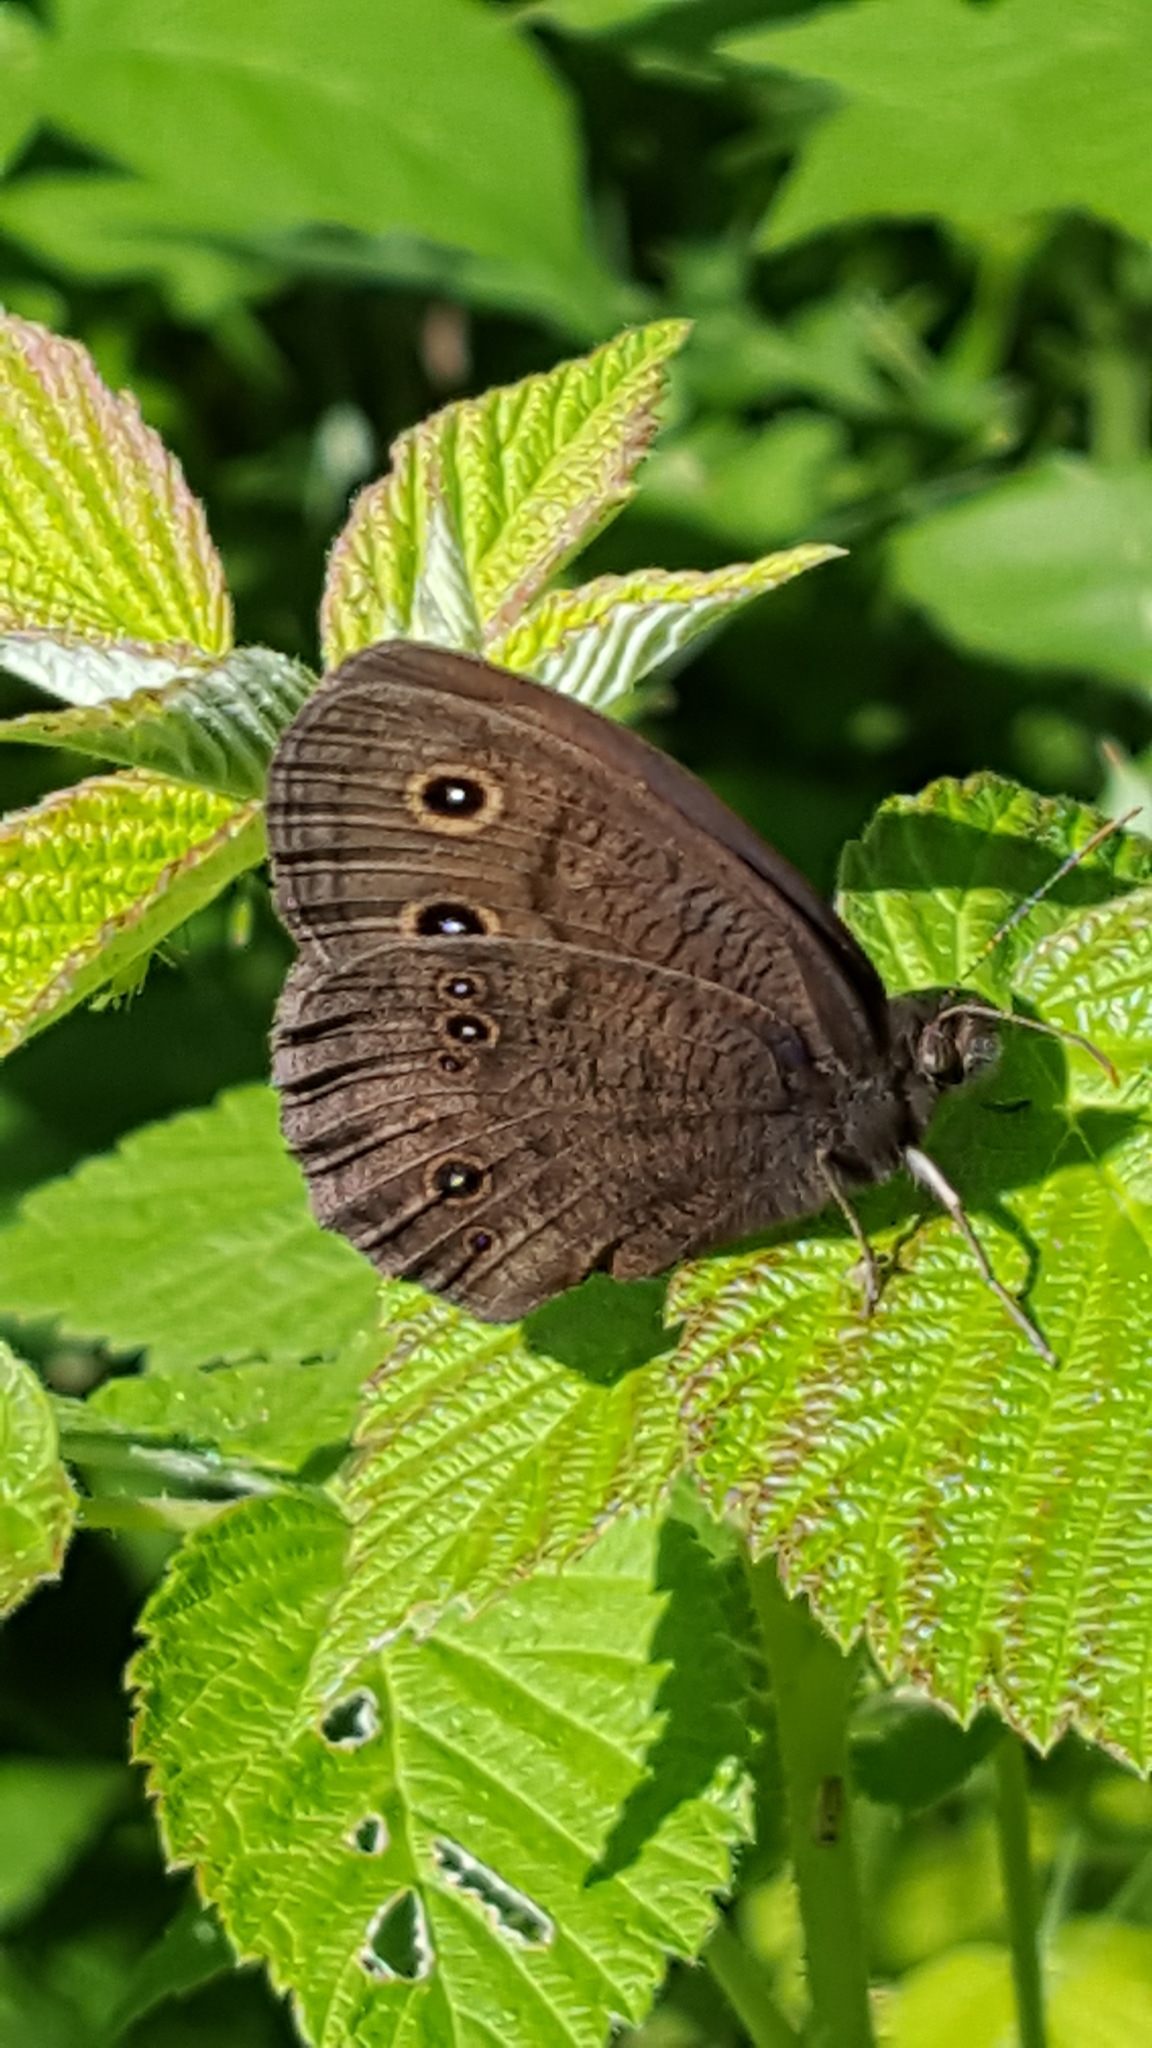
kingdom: Animalia
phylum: Arthropoda
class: Insecta
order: Lepidoptera
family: Nymphalidae
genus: Cercyonis
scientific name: Cercyonis pegala
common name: Common wood-nymph
